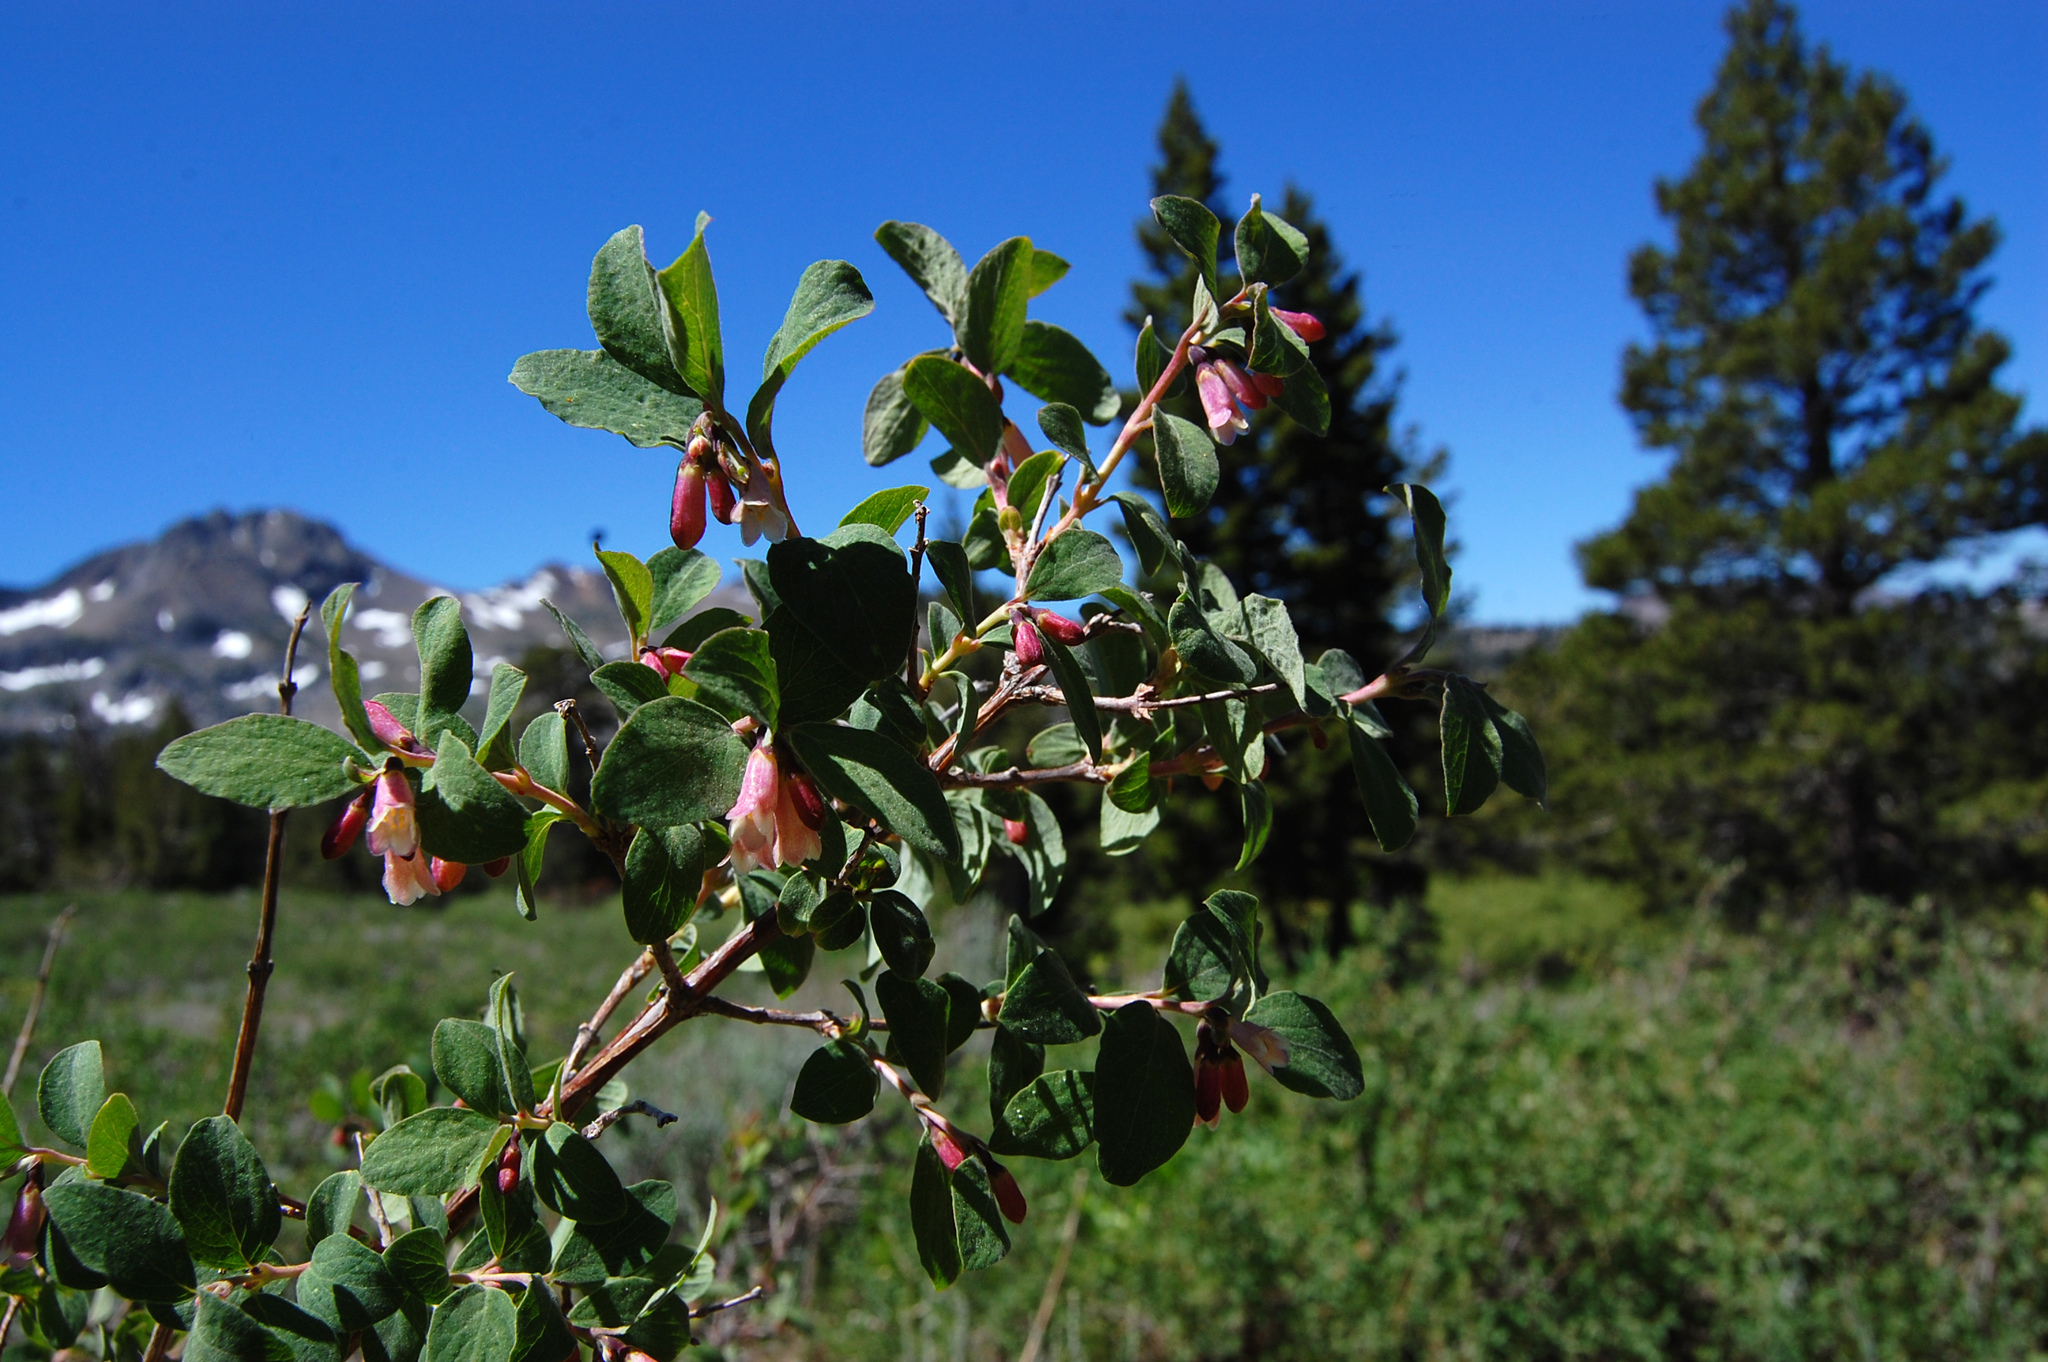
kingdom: Plantae
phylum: Tracheophyta
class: Magnoliopsida
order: Dipsacales
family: Caprifoliaceae
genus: Symphoricarpos
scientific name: Symphoricarpos rotundifolius
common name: Round-leaved snowberry
